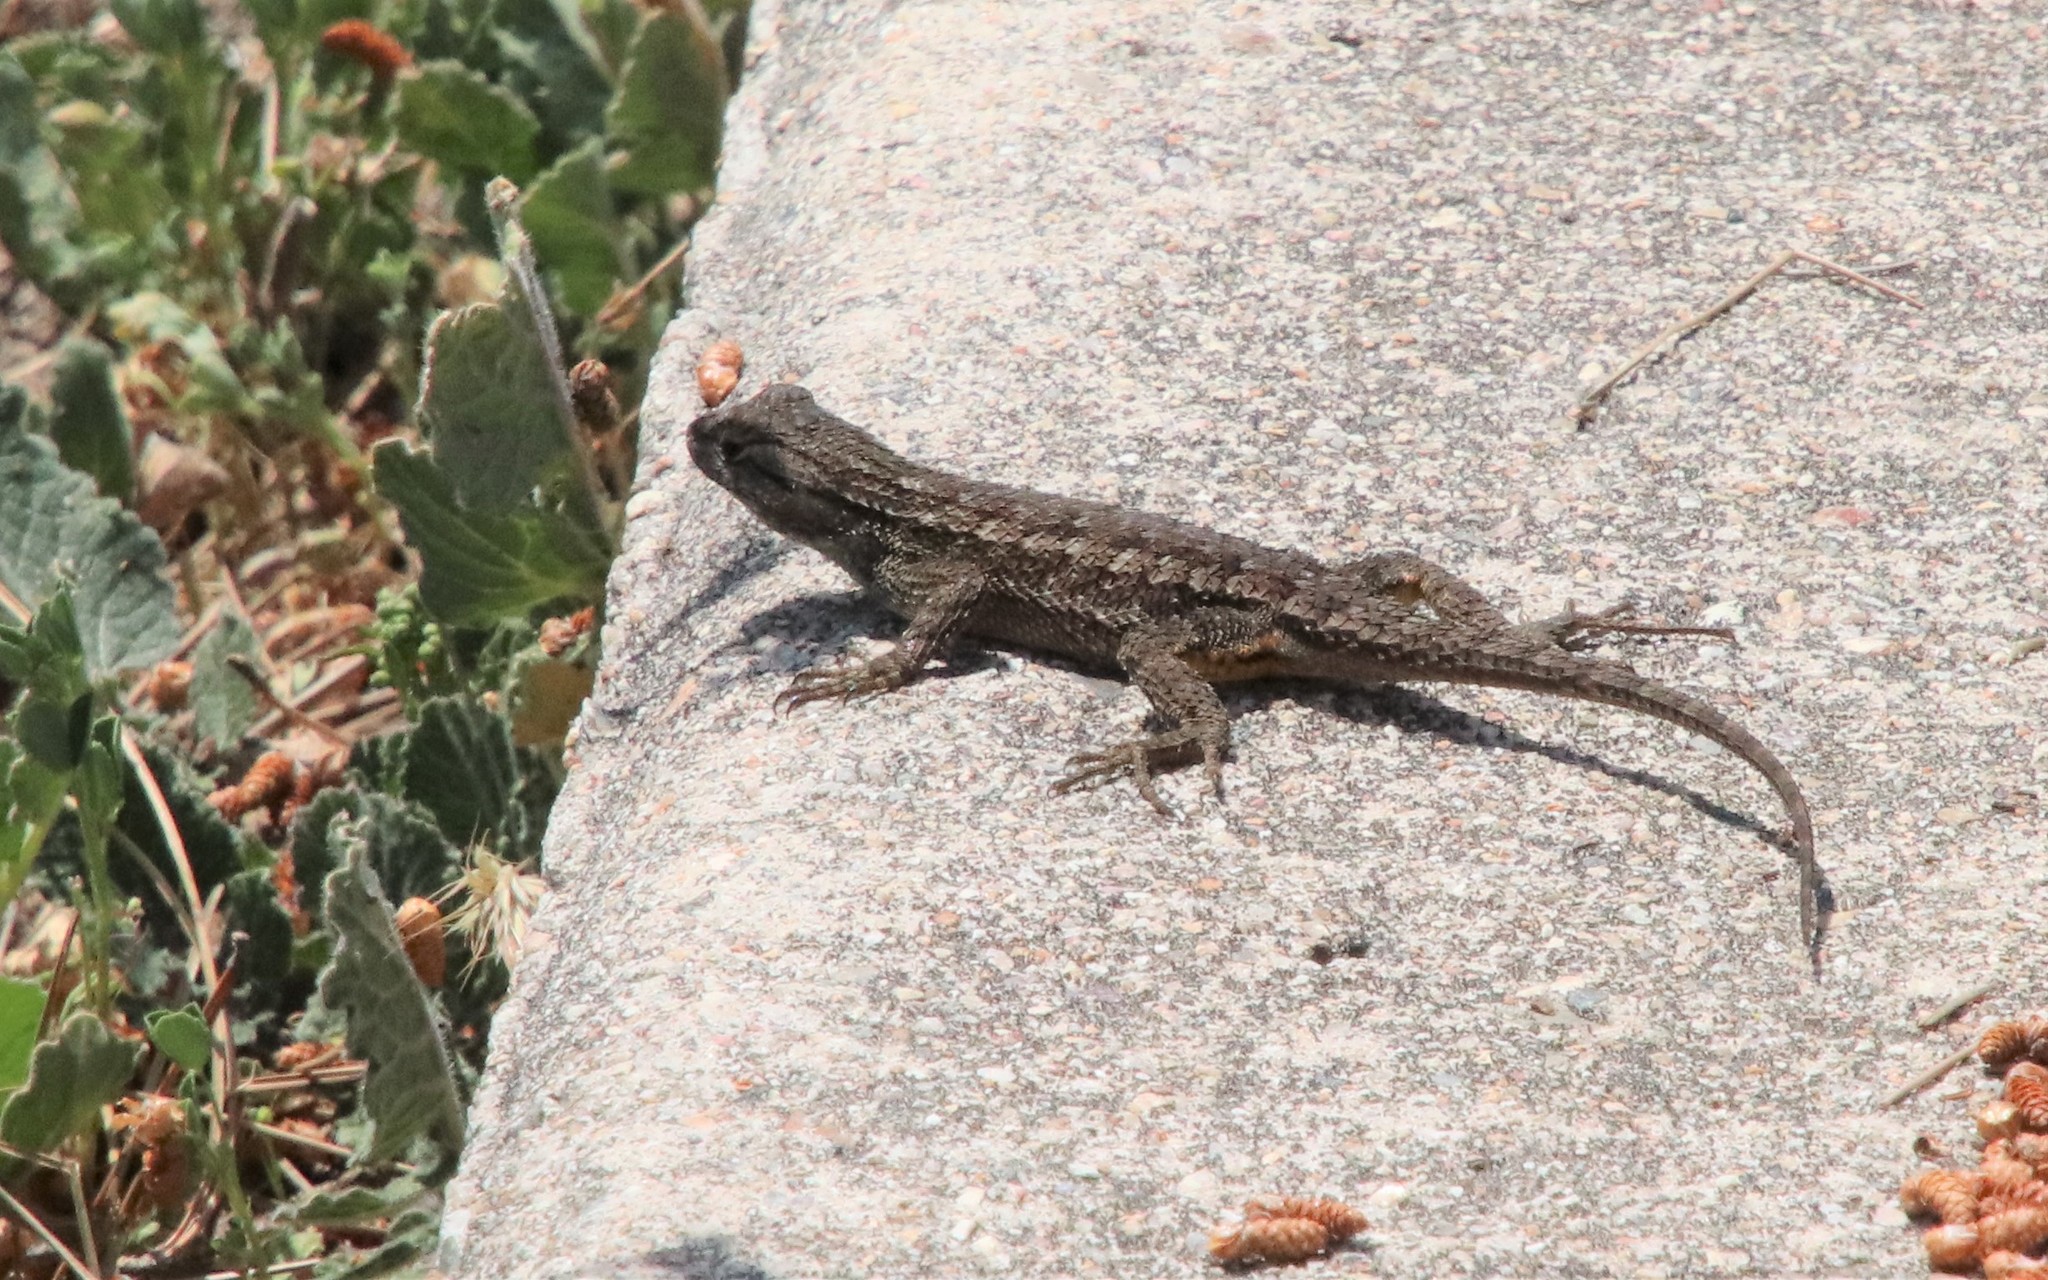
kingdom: Animalia
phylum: Chordata
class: Squamata
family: Phrynosomatidae
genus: Sceloporus
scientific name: Sceloporus occidentalis
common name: Western fence lizard
